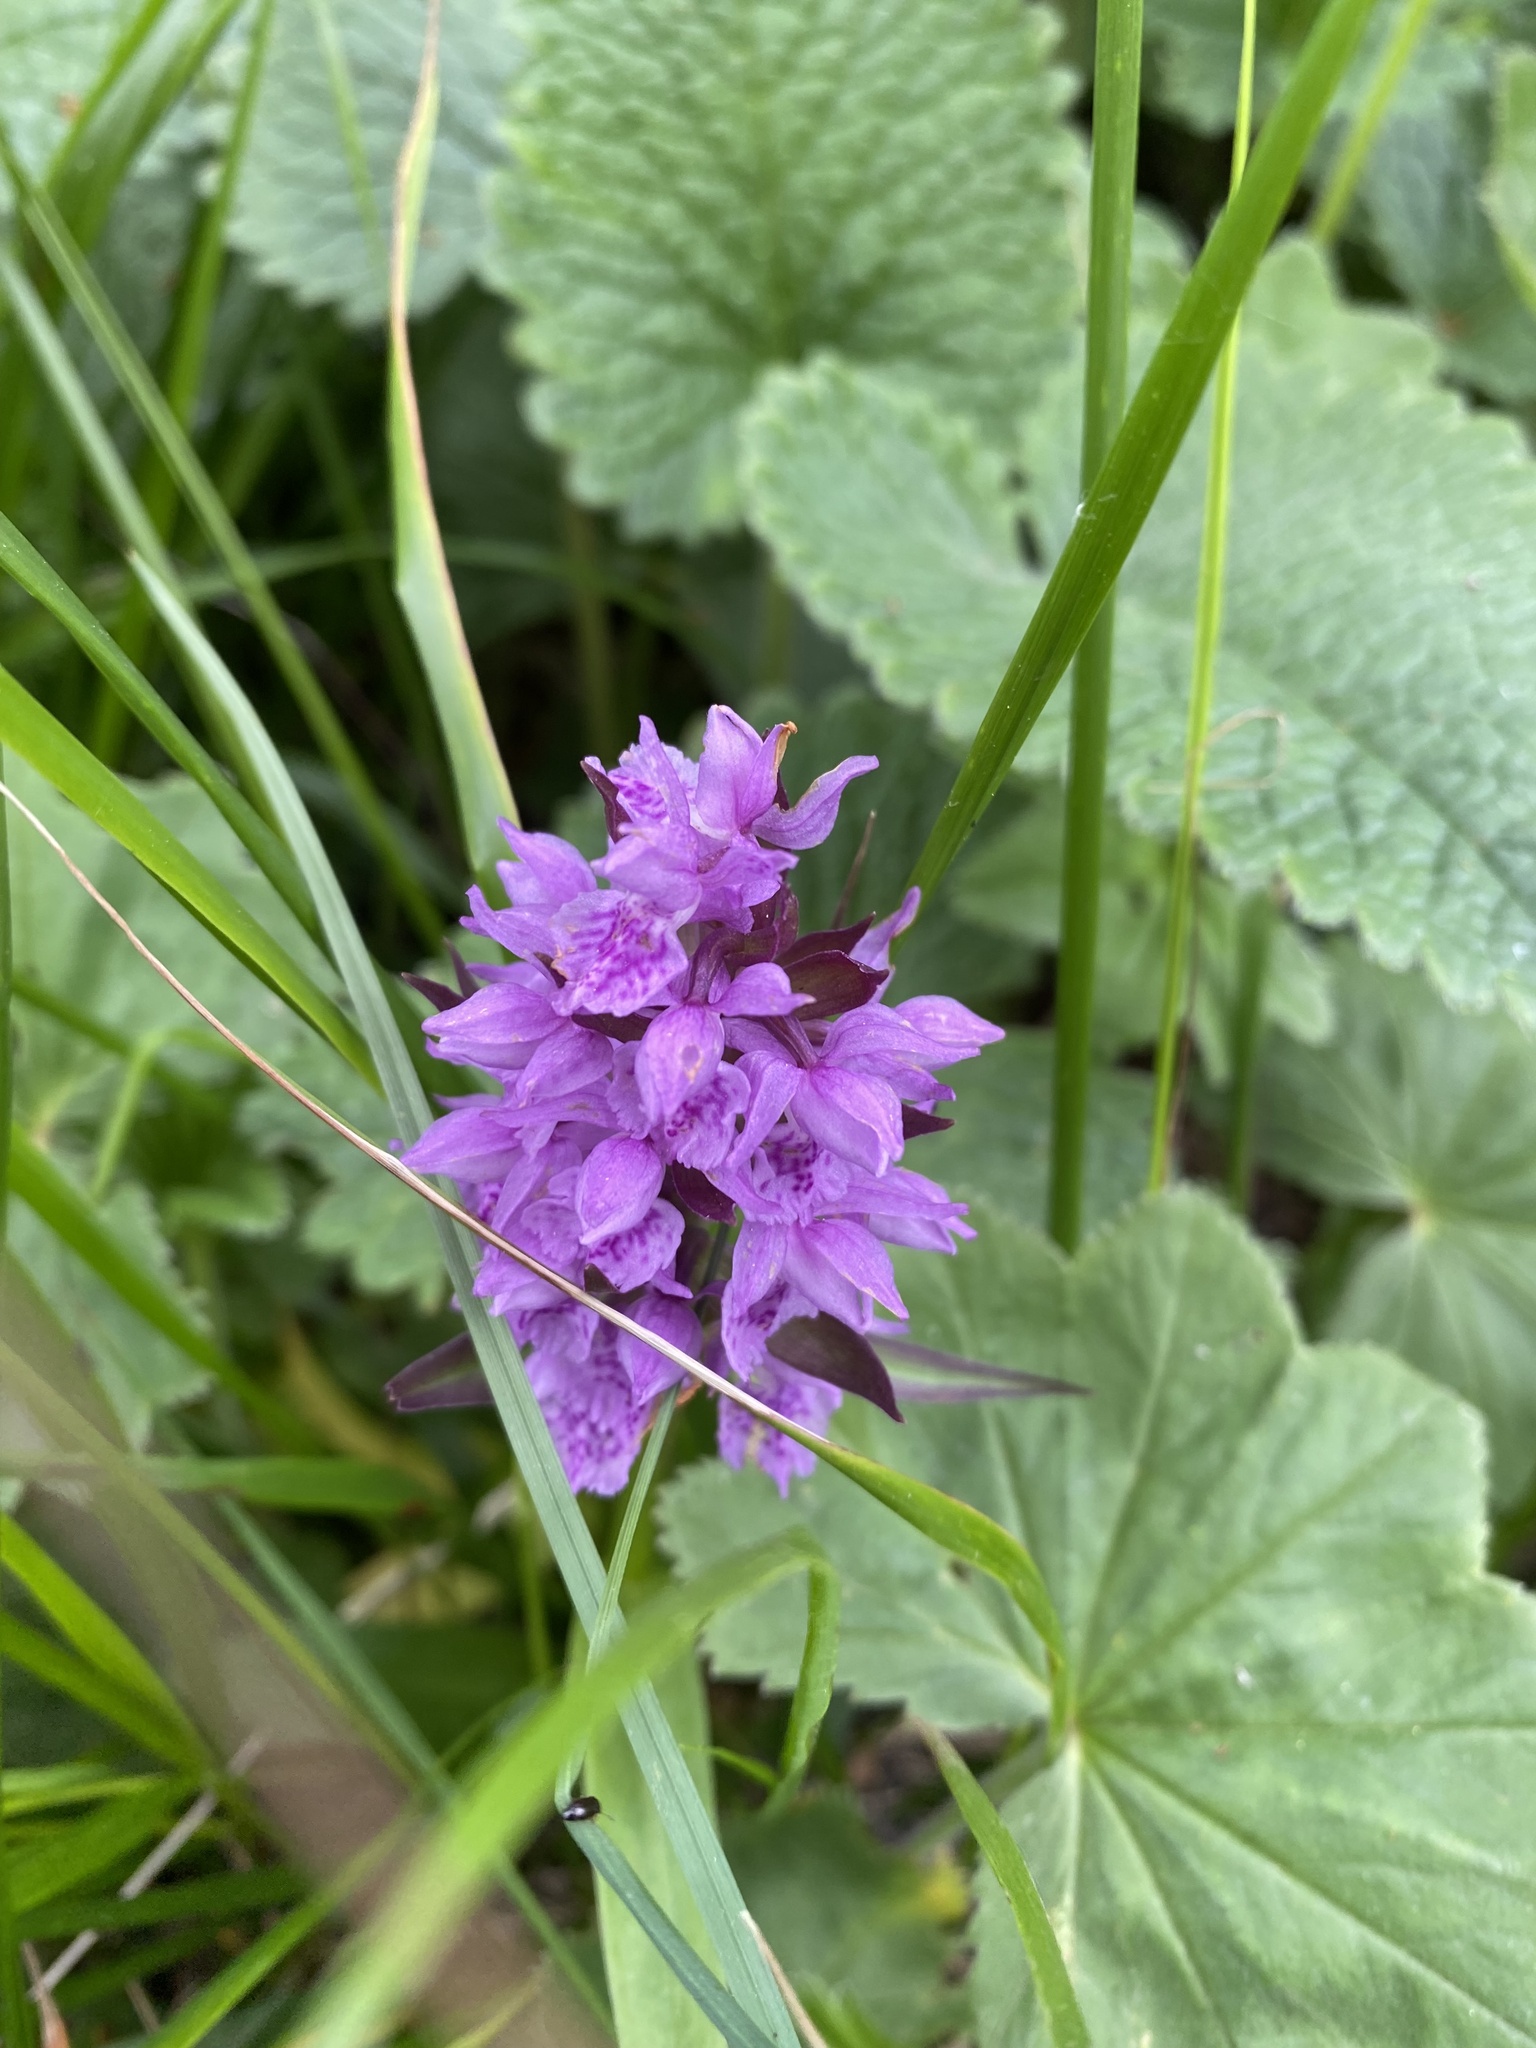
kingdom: Plantae
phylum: Tracheophyta
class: Liliopsida
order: Asparagales
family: Orchidaceae
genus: Dactylorhiza
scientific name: Dactylorhiza euxina
